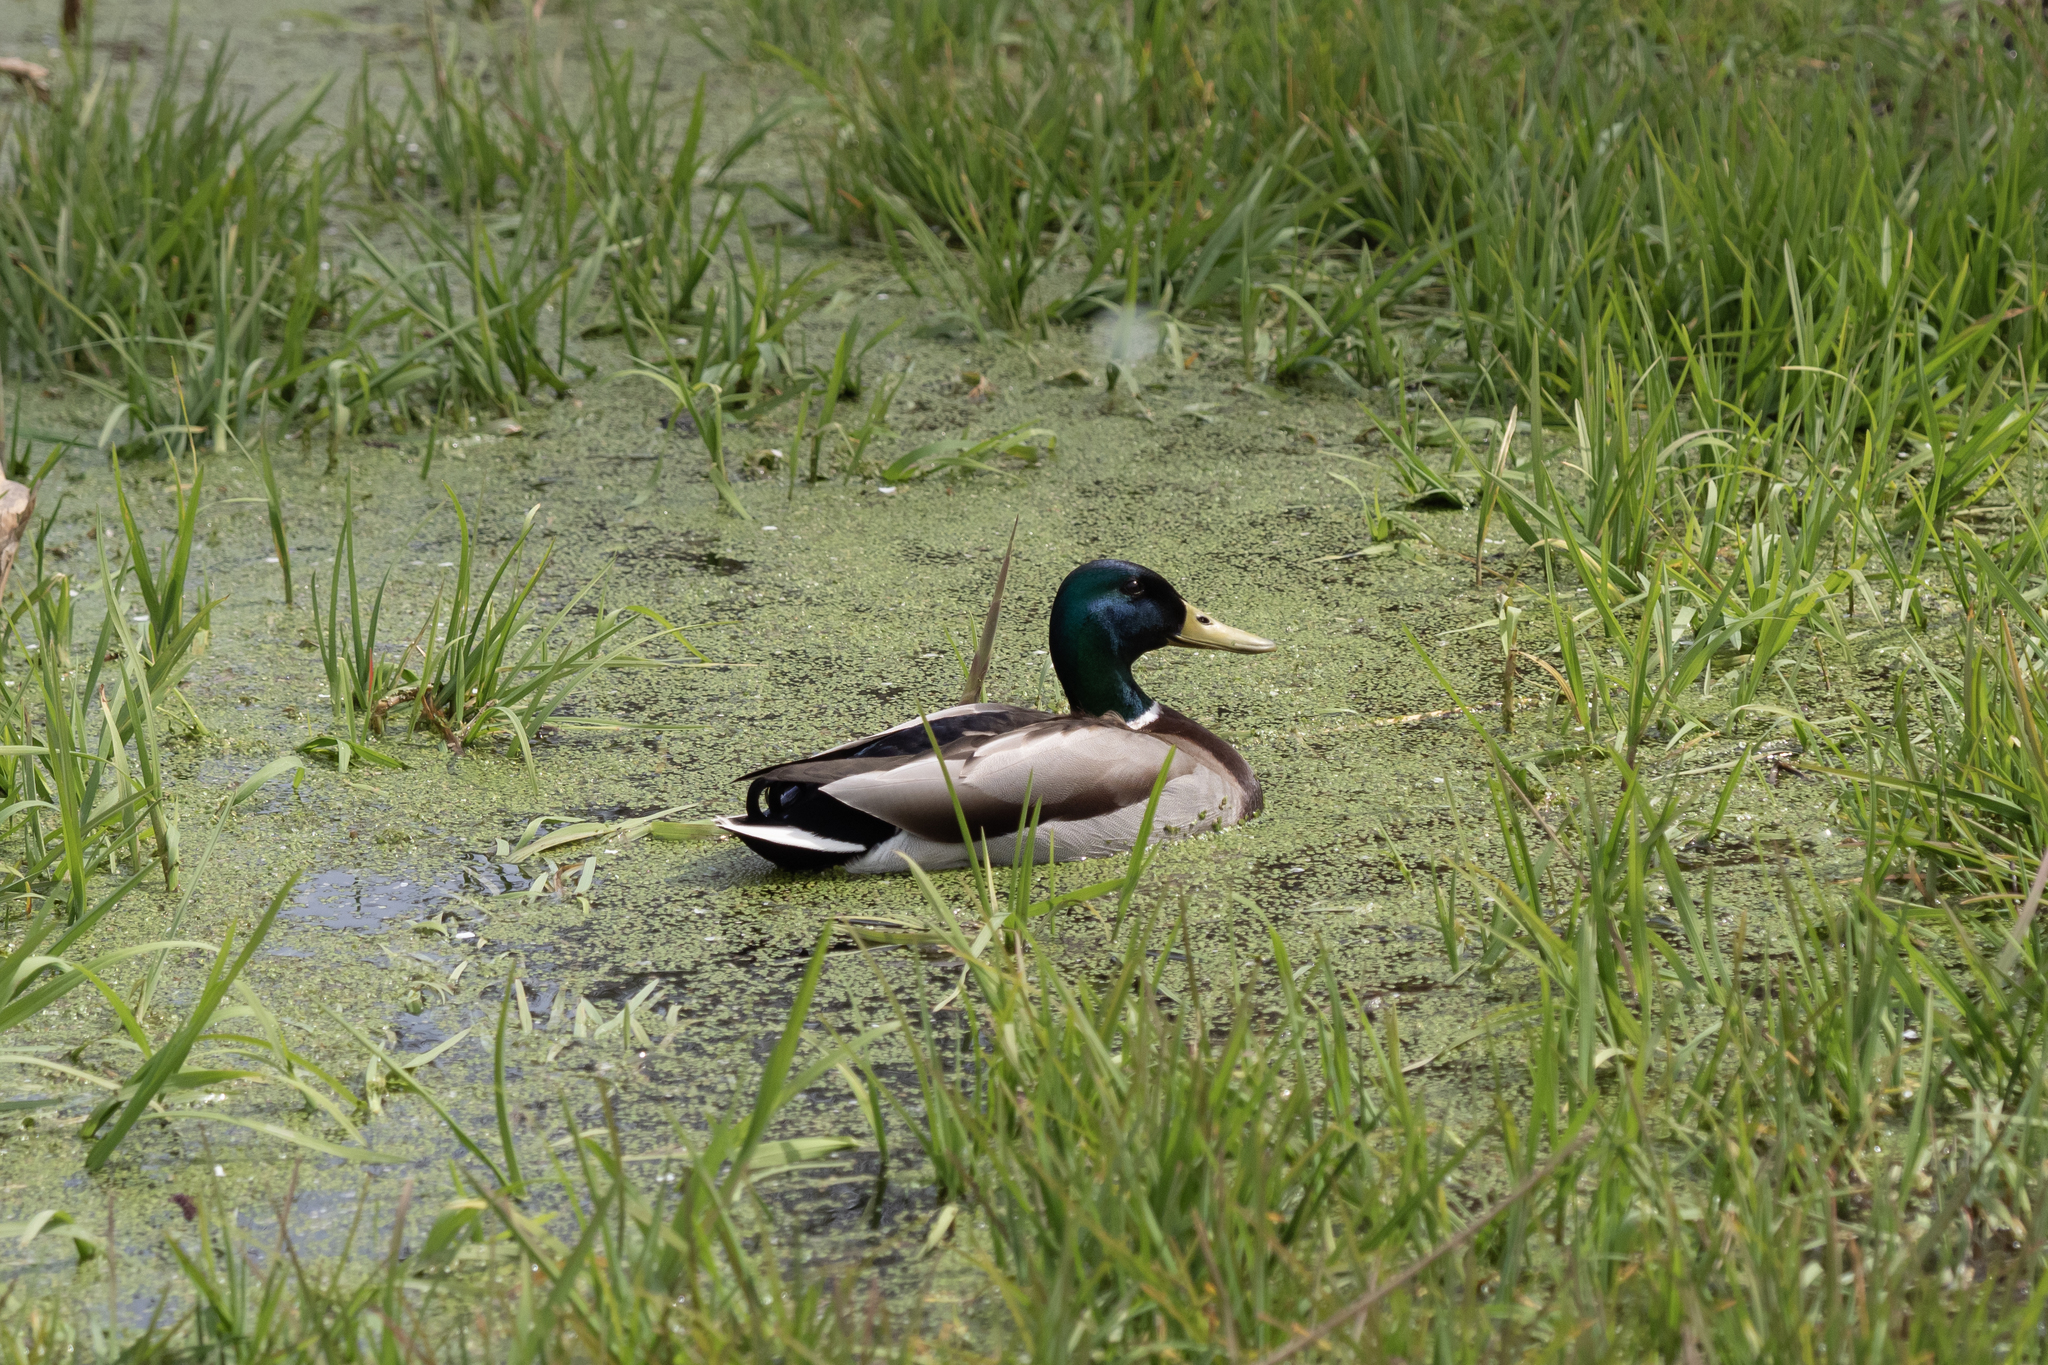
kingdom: Animalia
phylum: Chordata
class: Aves
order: Anseriformes
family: Anatidae
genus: Anas
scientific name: Anas platyrhynchos
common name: Mallard
